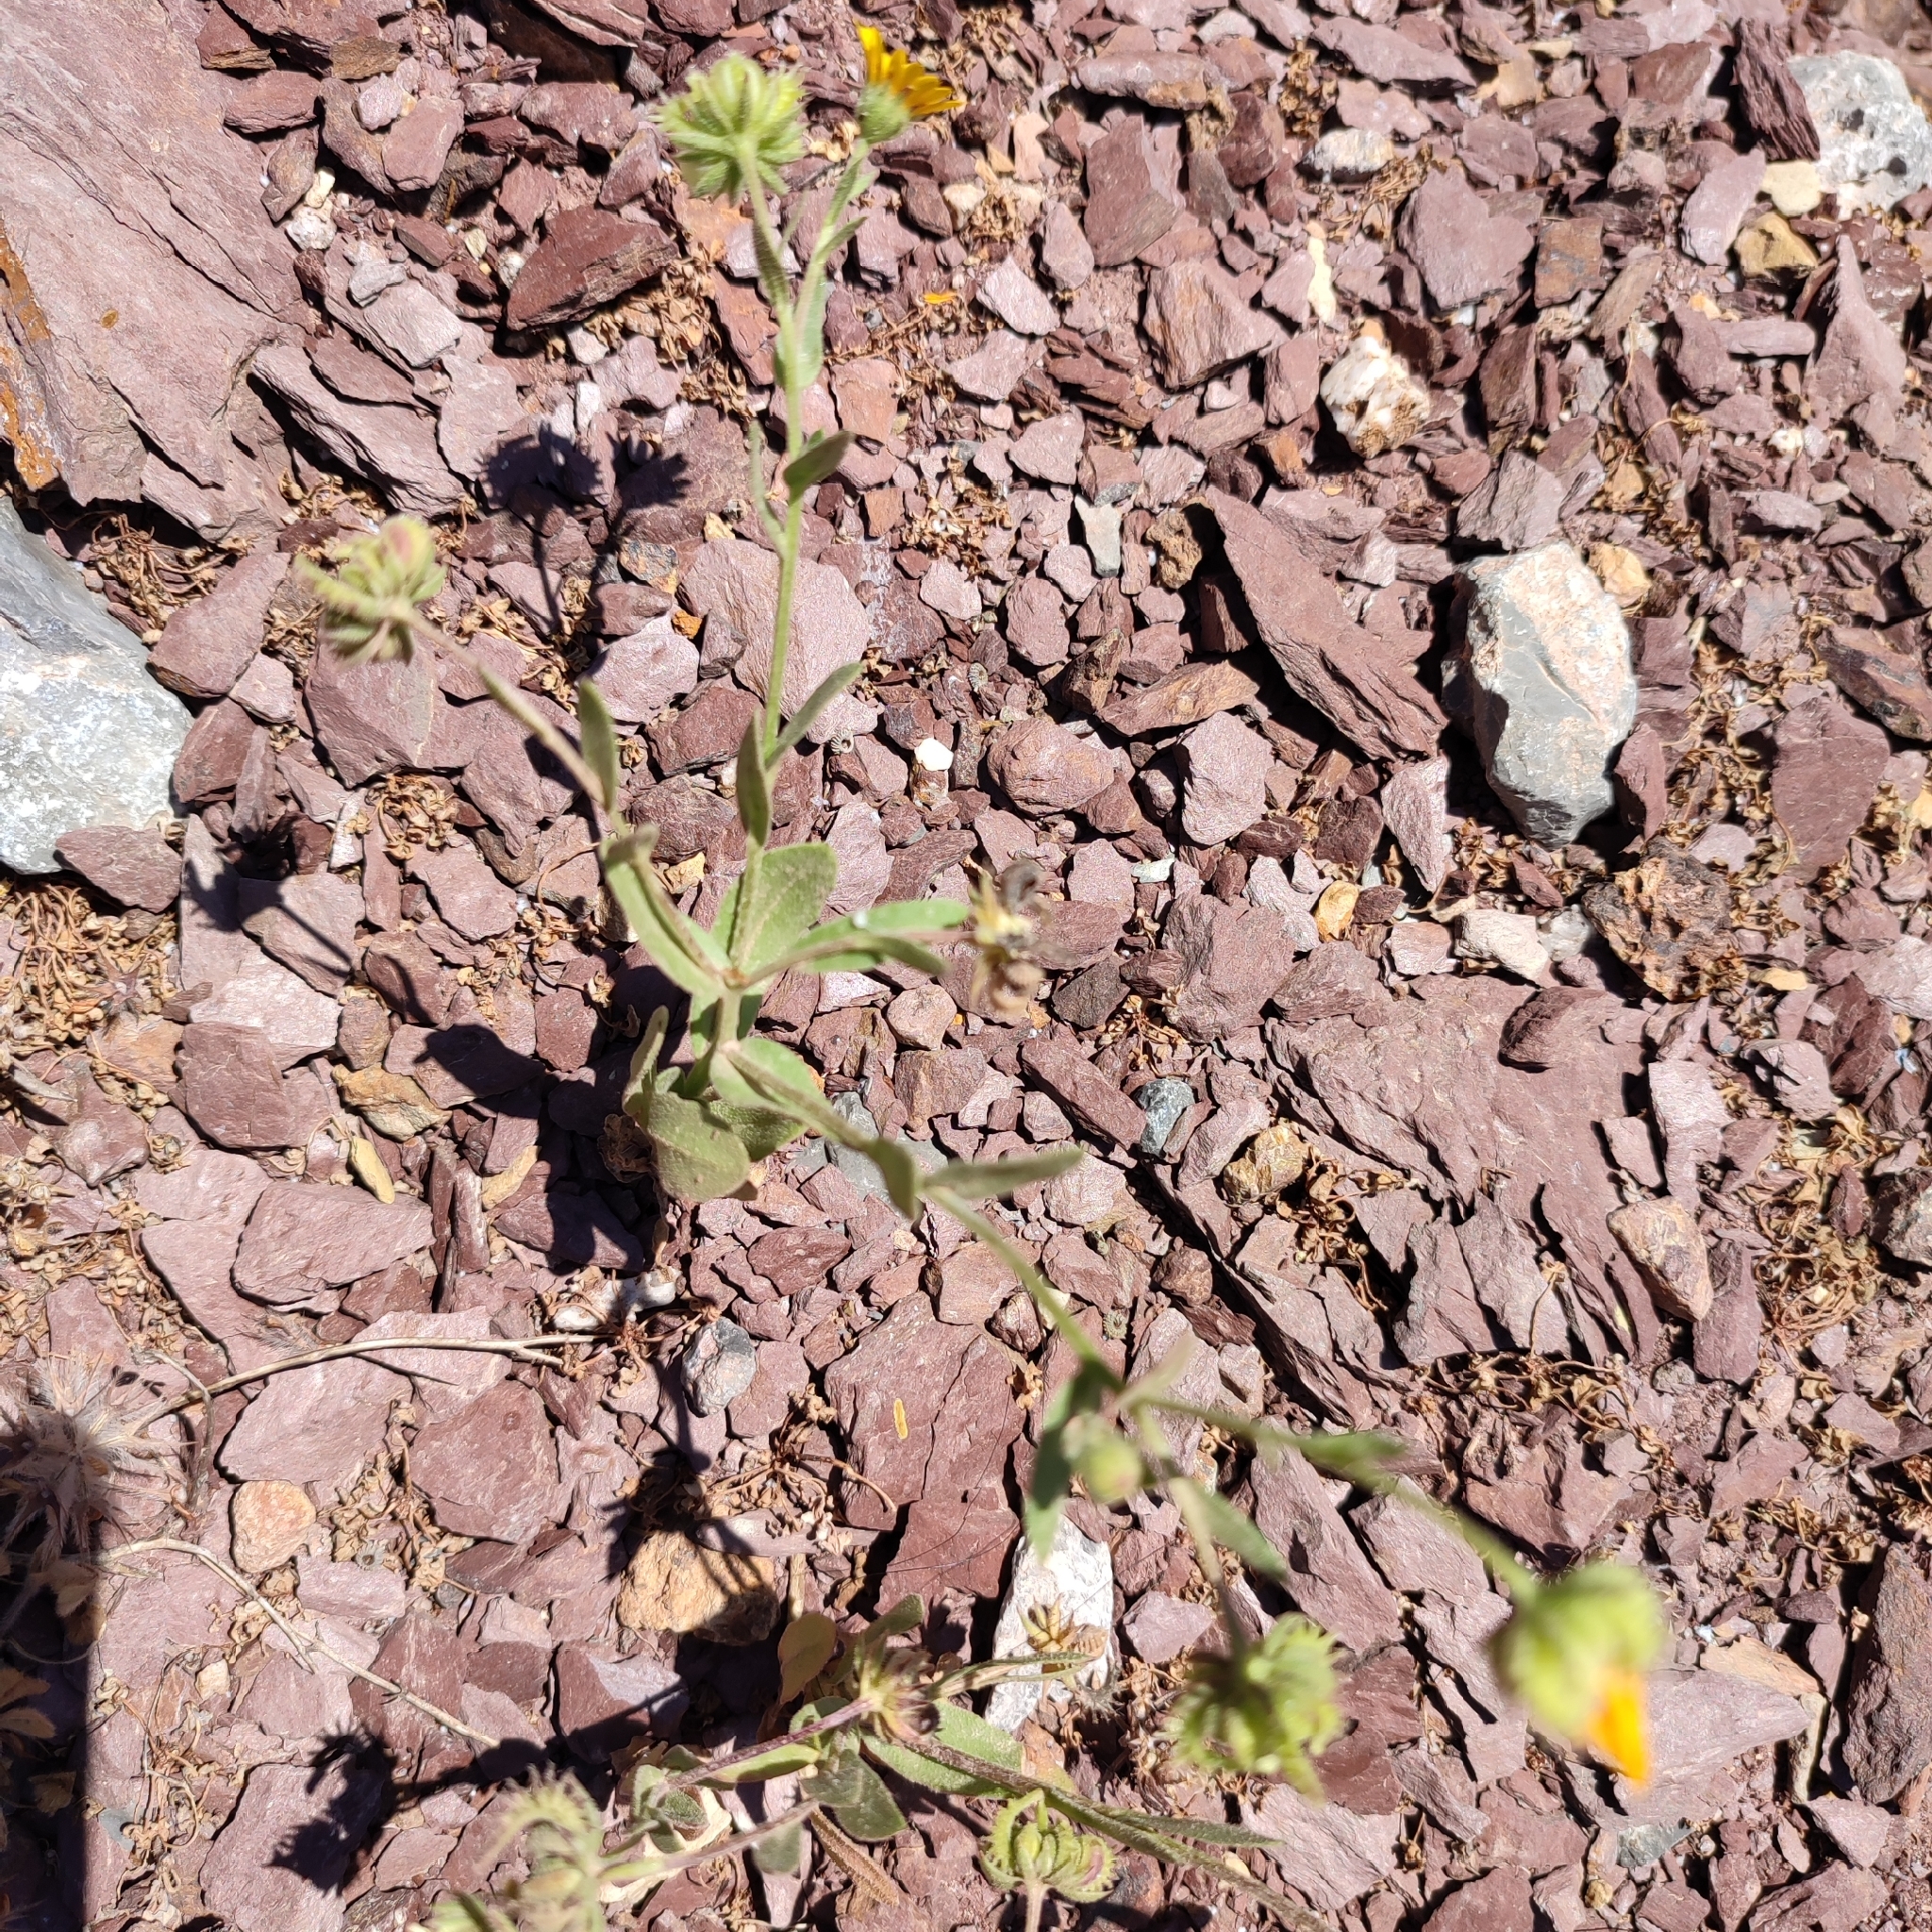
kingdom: Plantae
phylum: Tracheophyta
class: Magnoliopsida
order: Asterales
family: Asteraceae
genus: Calendula
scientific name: Calendula arvensis
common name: Field marigold
